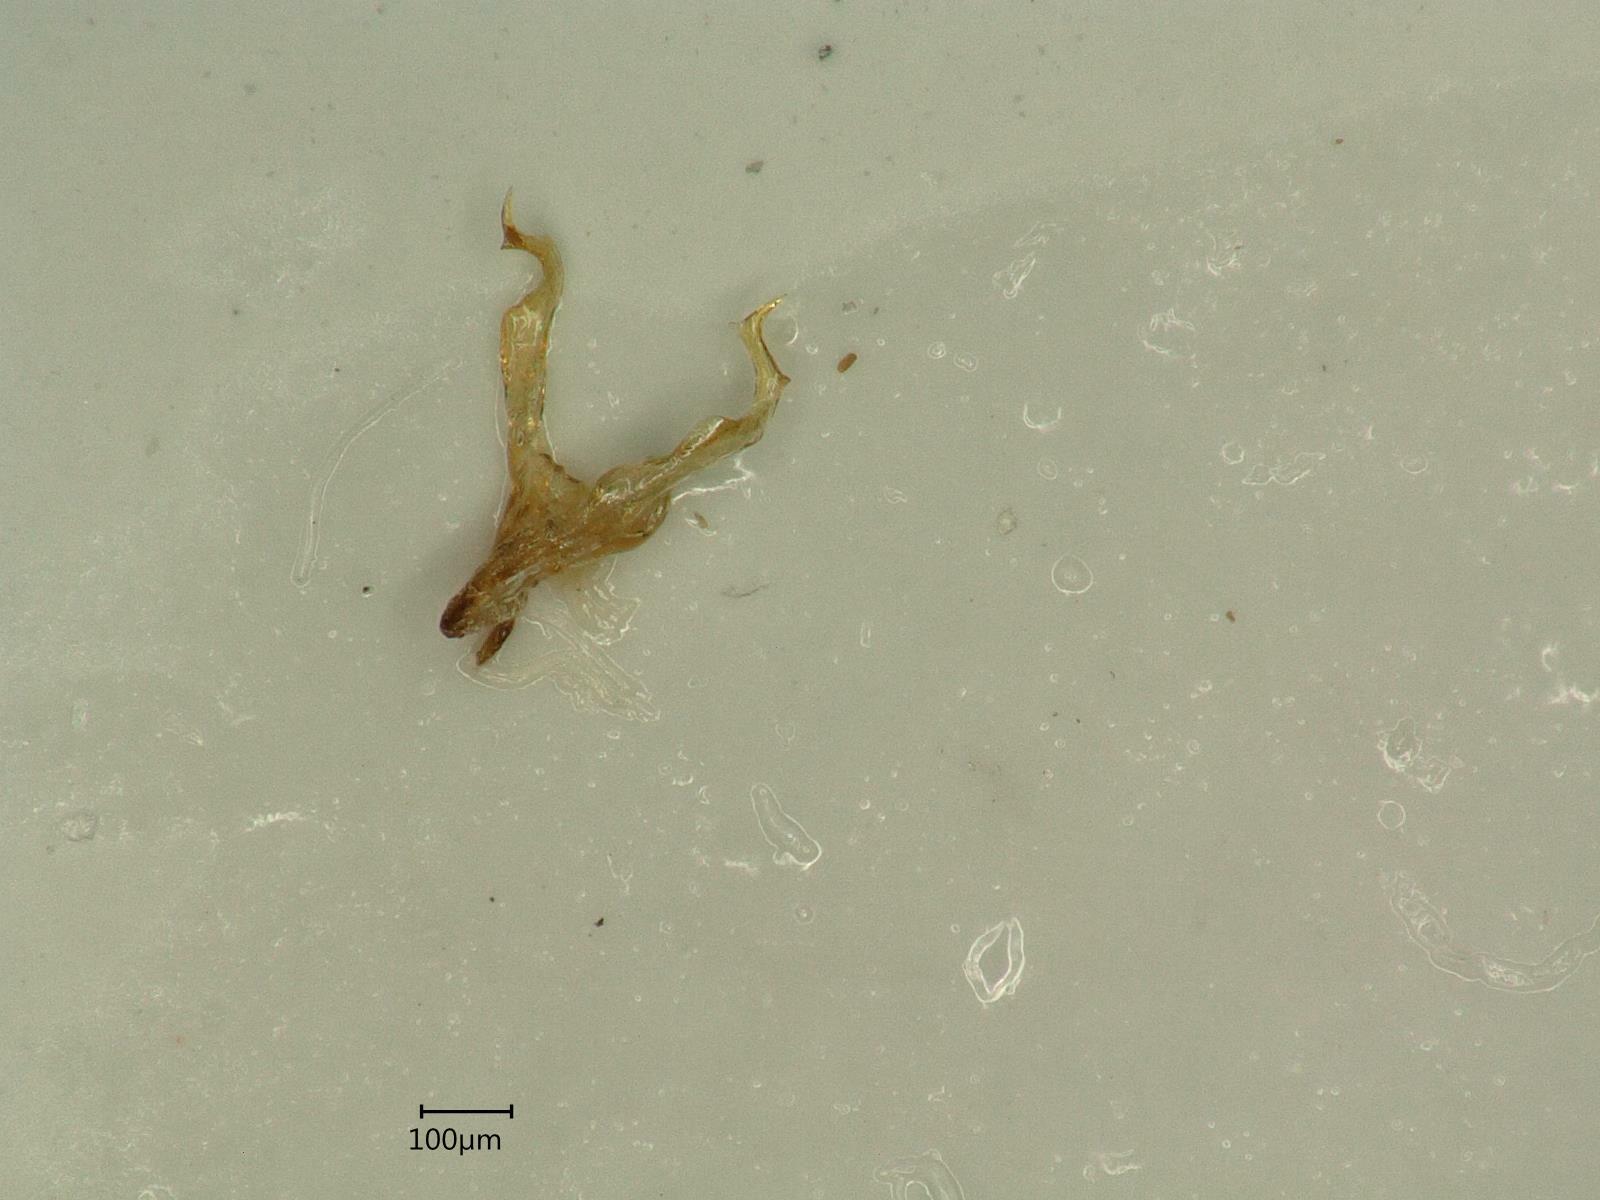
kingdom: Animalia
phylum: Arthropoda
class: Insecta
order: Hemiptera
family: Cicadellidae
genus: Arboridia
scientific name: Arboridia velata
